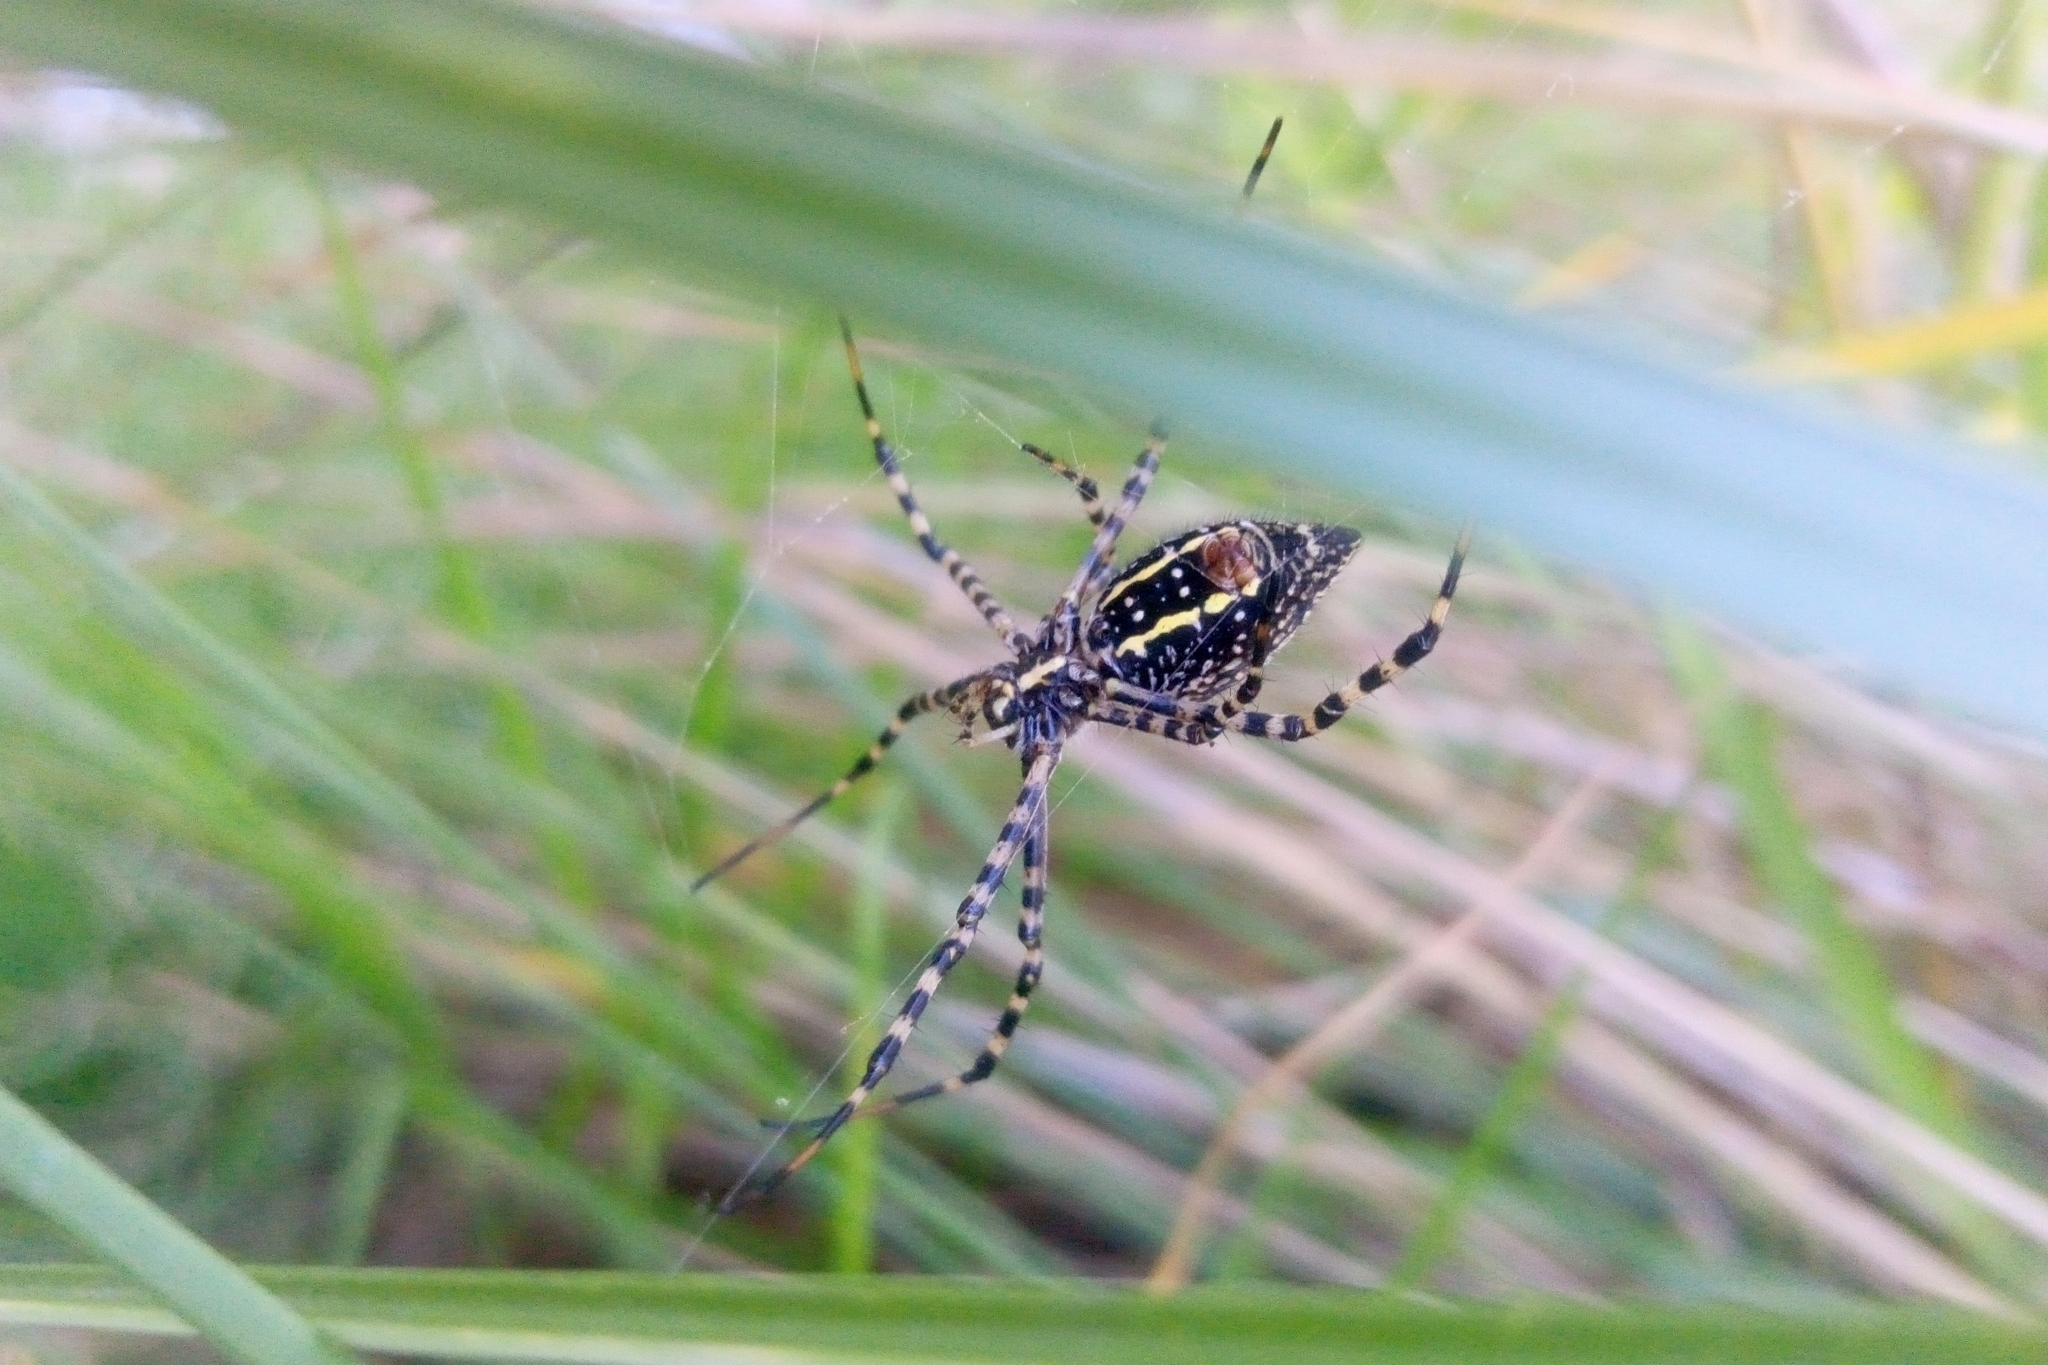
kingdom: Animalia
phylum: Arthropoda
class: Arachnida
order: Araneae
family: Araneidae
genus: Argiope
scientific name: Argiope trifasciata
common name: Banded garden spider
